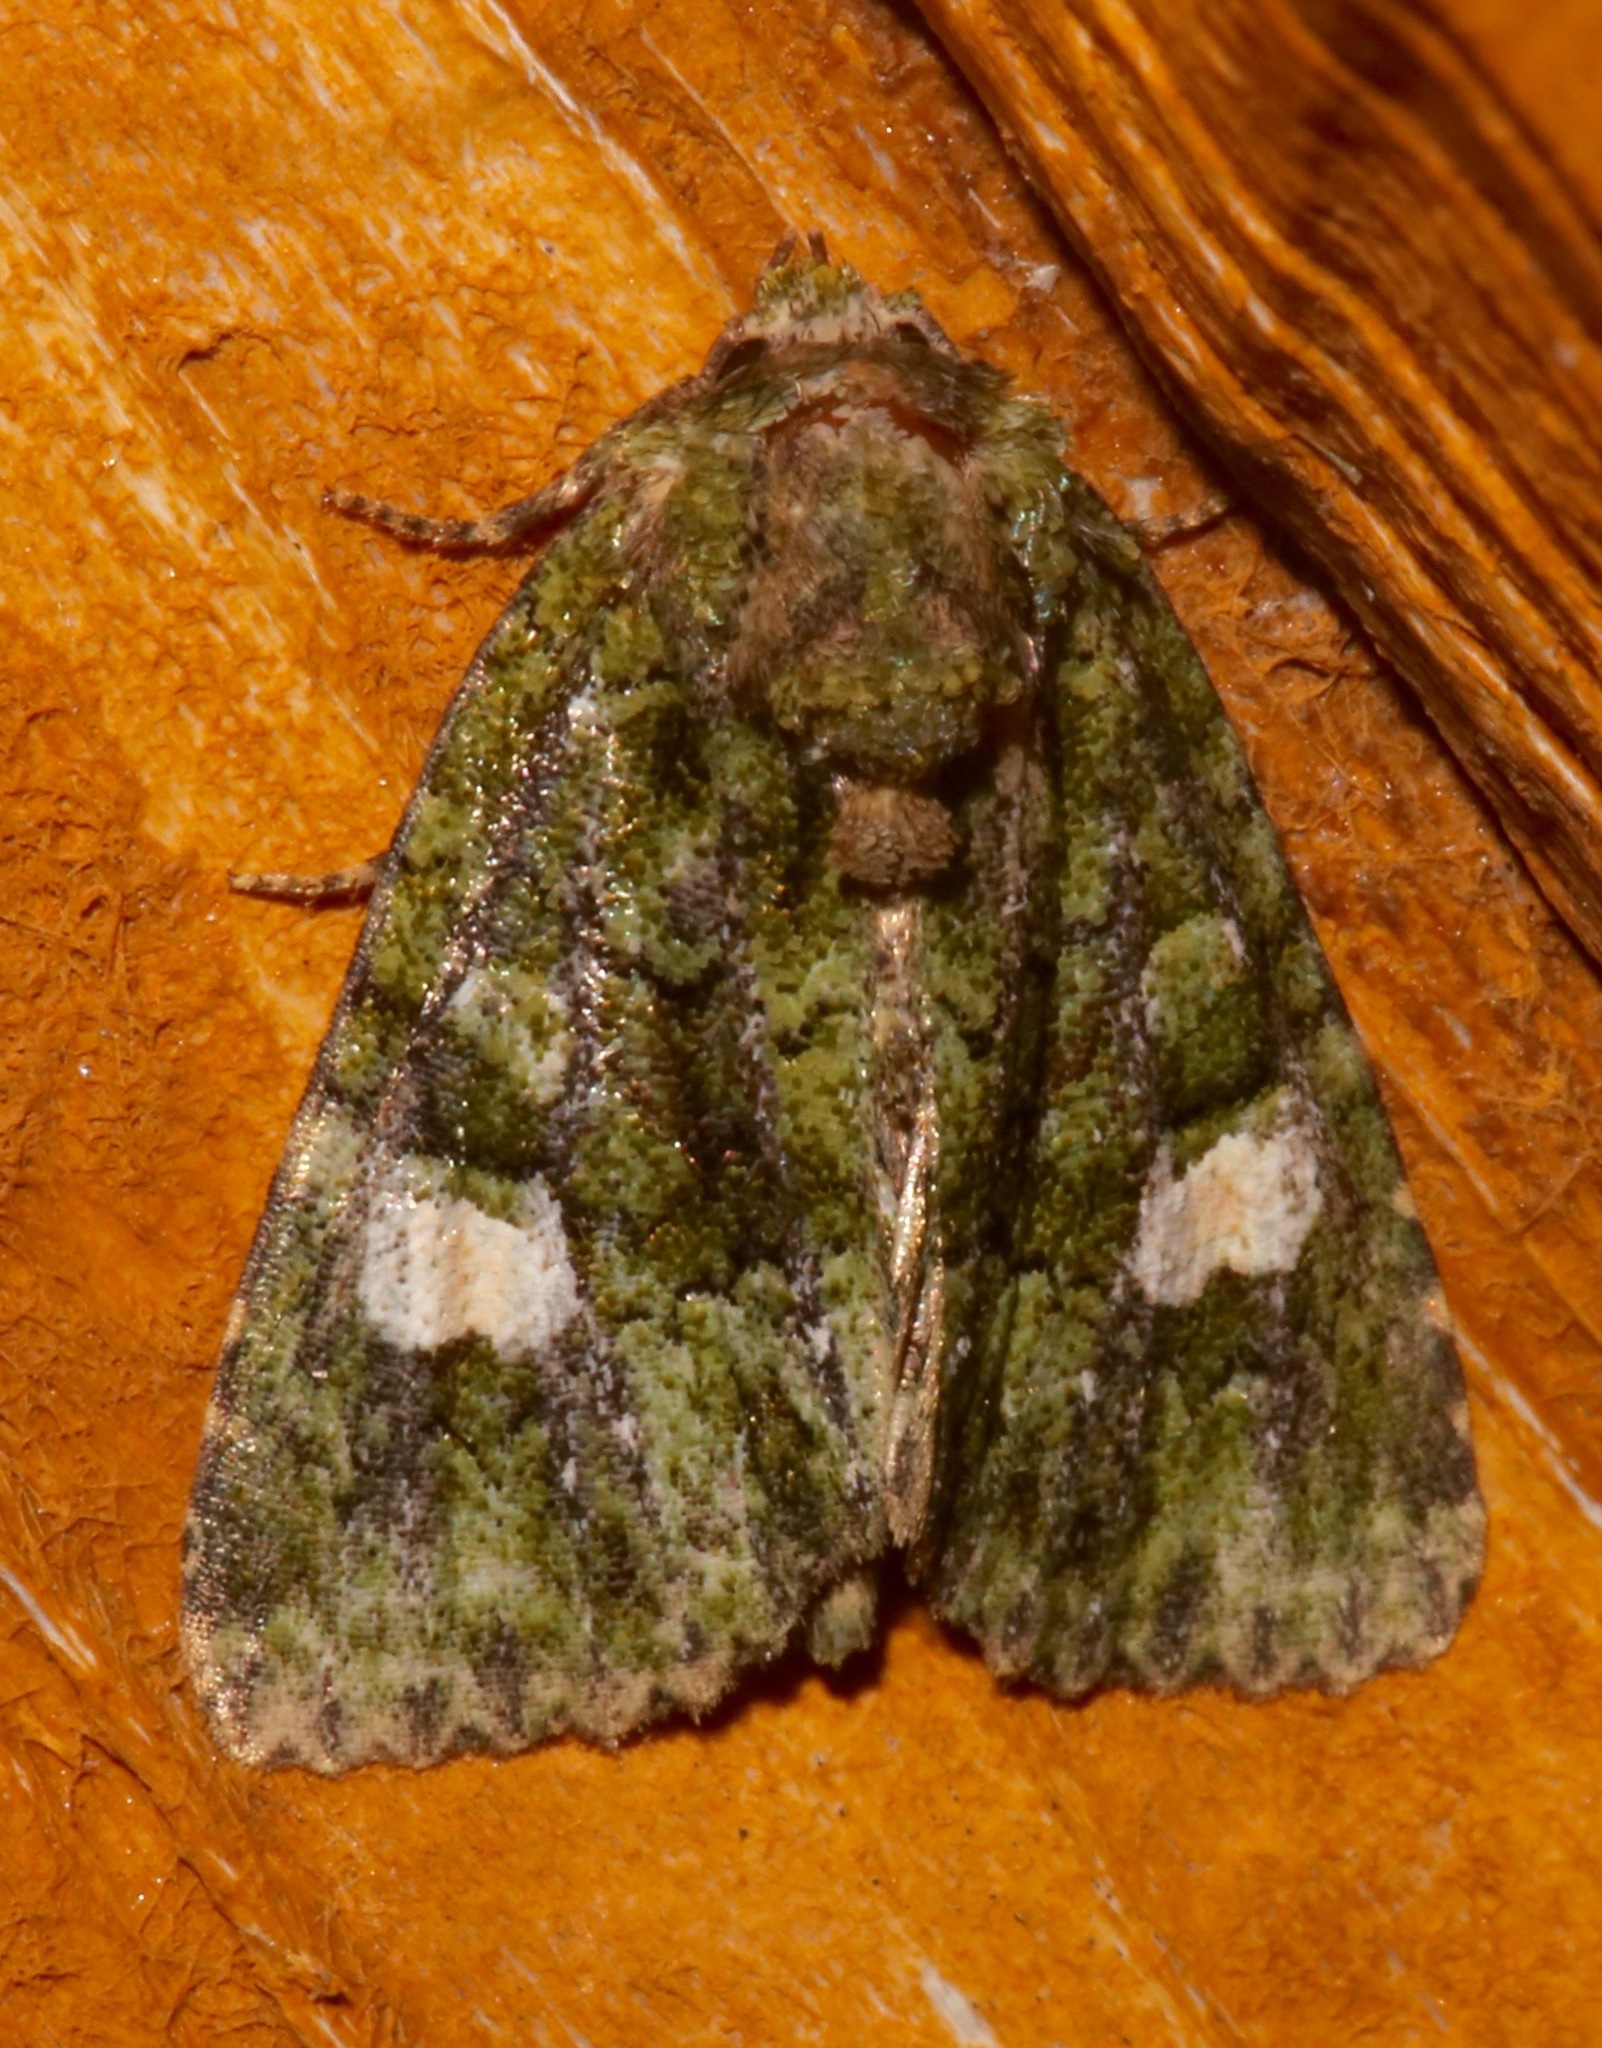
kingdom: Animalia
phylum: Arthropoda
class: Insecta
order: Lepidoptera
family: Noctuidae
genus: Phosphila
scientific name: Phosphila miselioides
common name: Spotted phosphila moth
